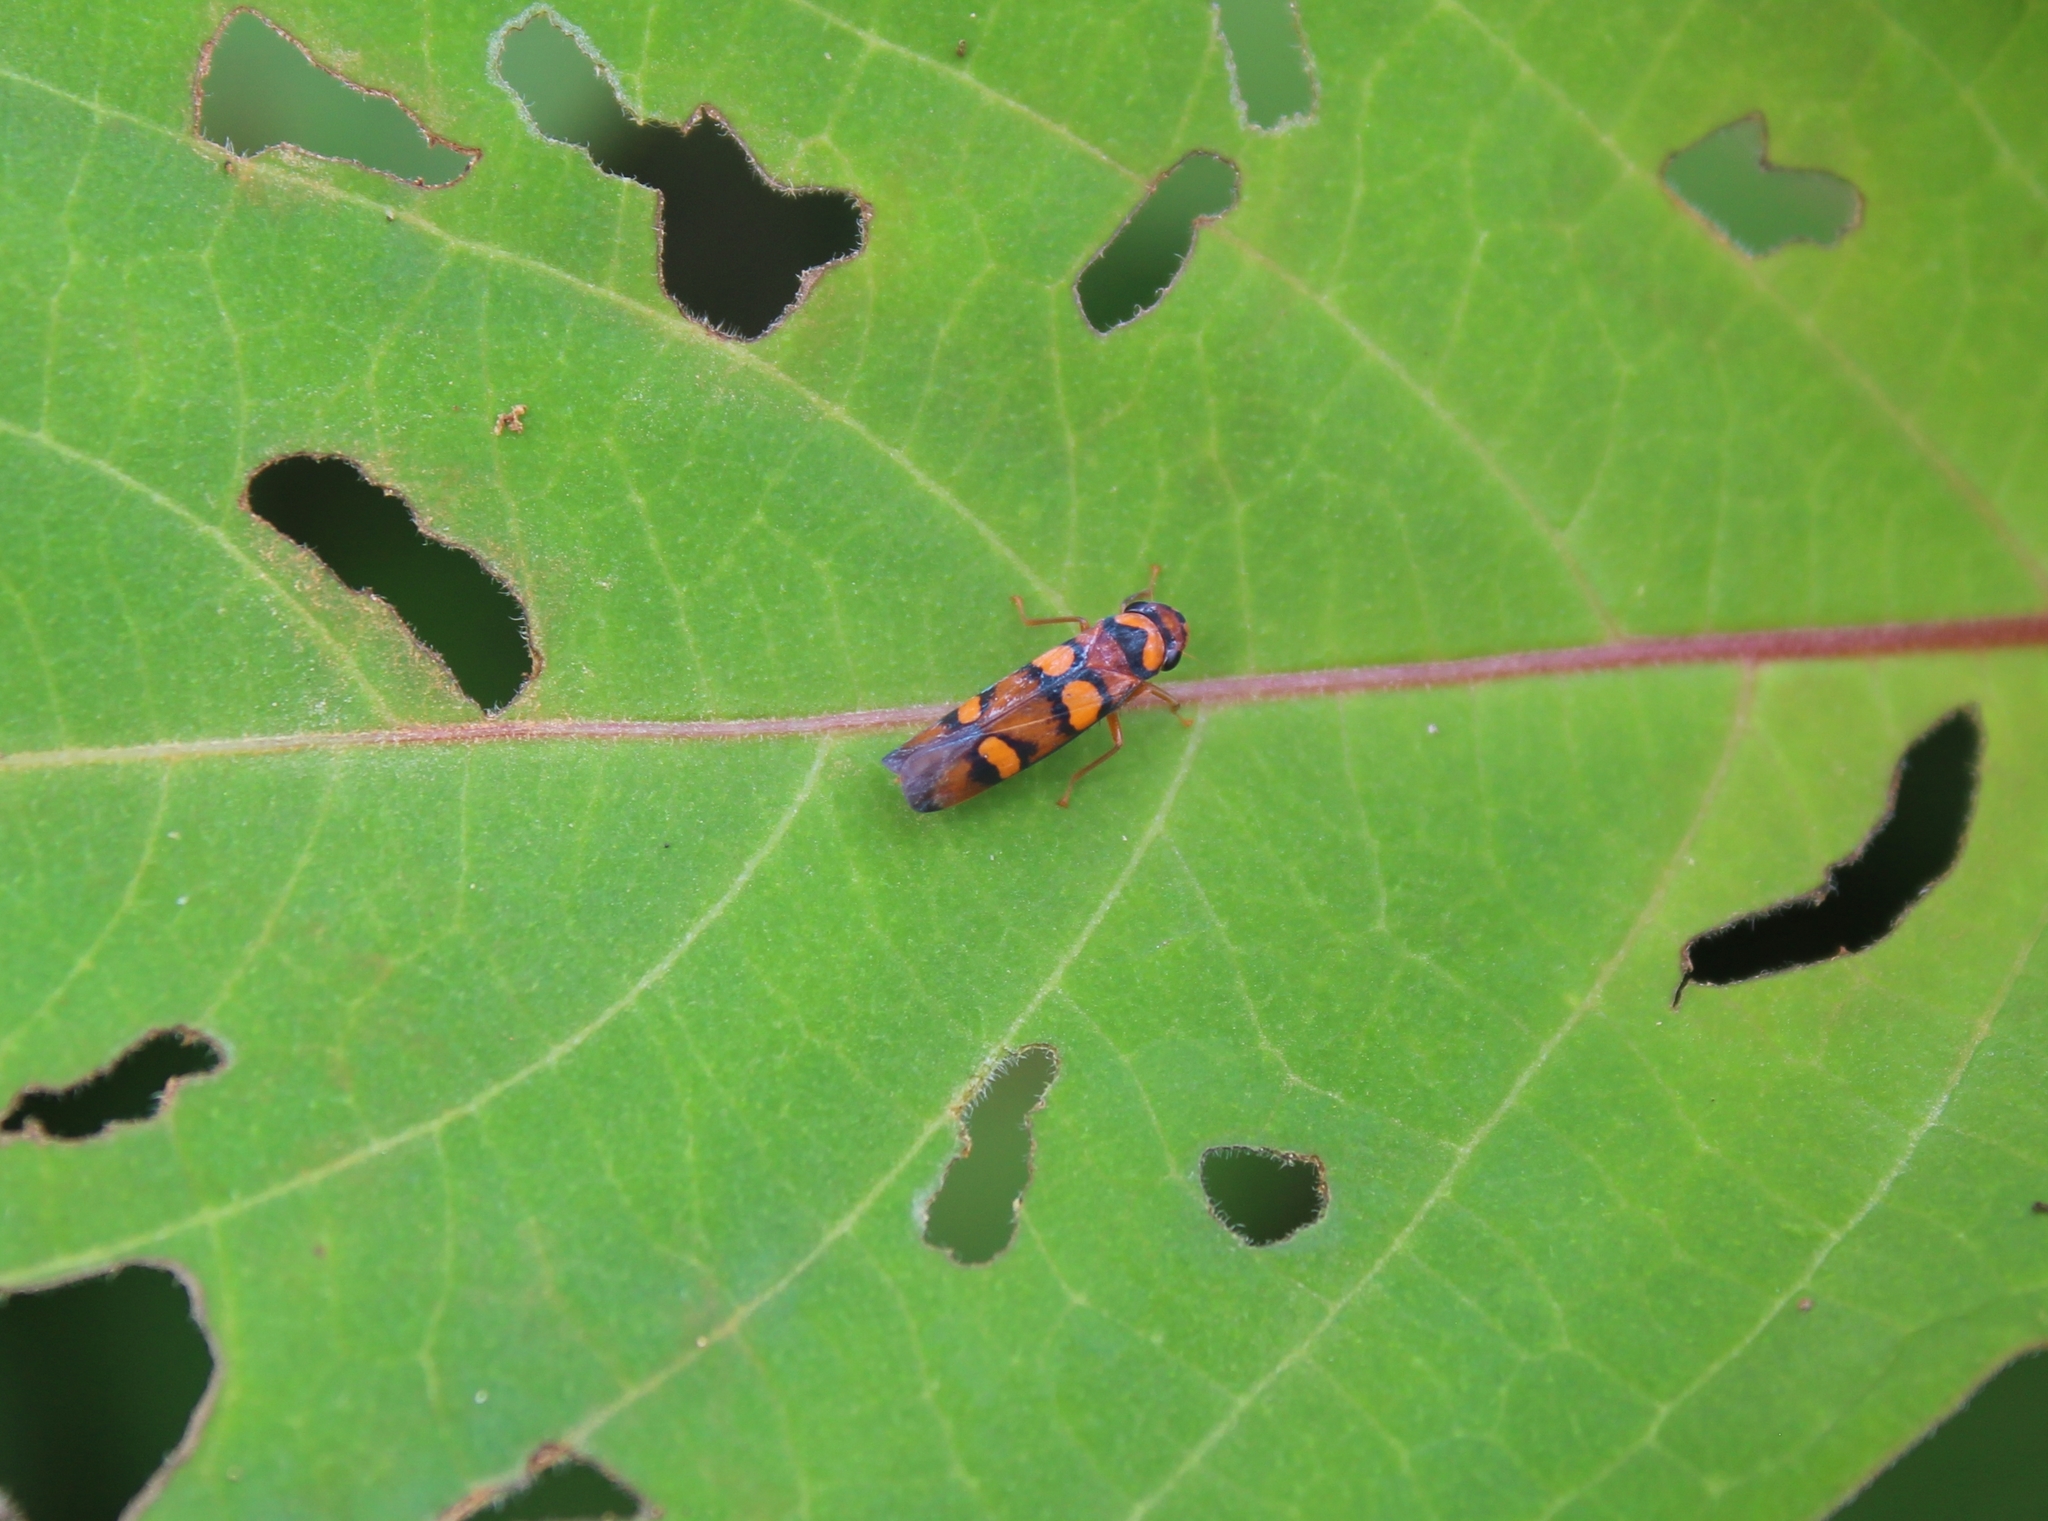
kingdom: Animalia
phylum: Arthropoda
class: Insecta
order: Hemiptera
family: Cicadellidae
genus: Pawiloma
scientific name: Pawiloma jucunda
